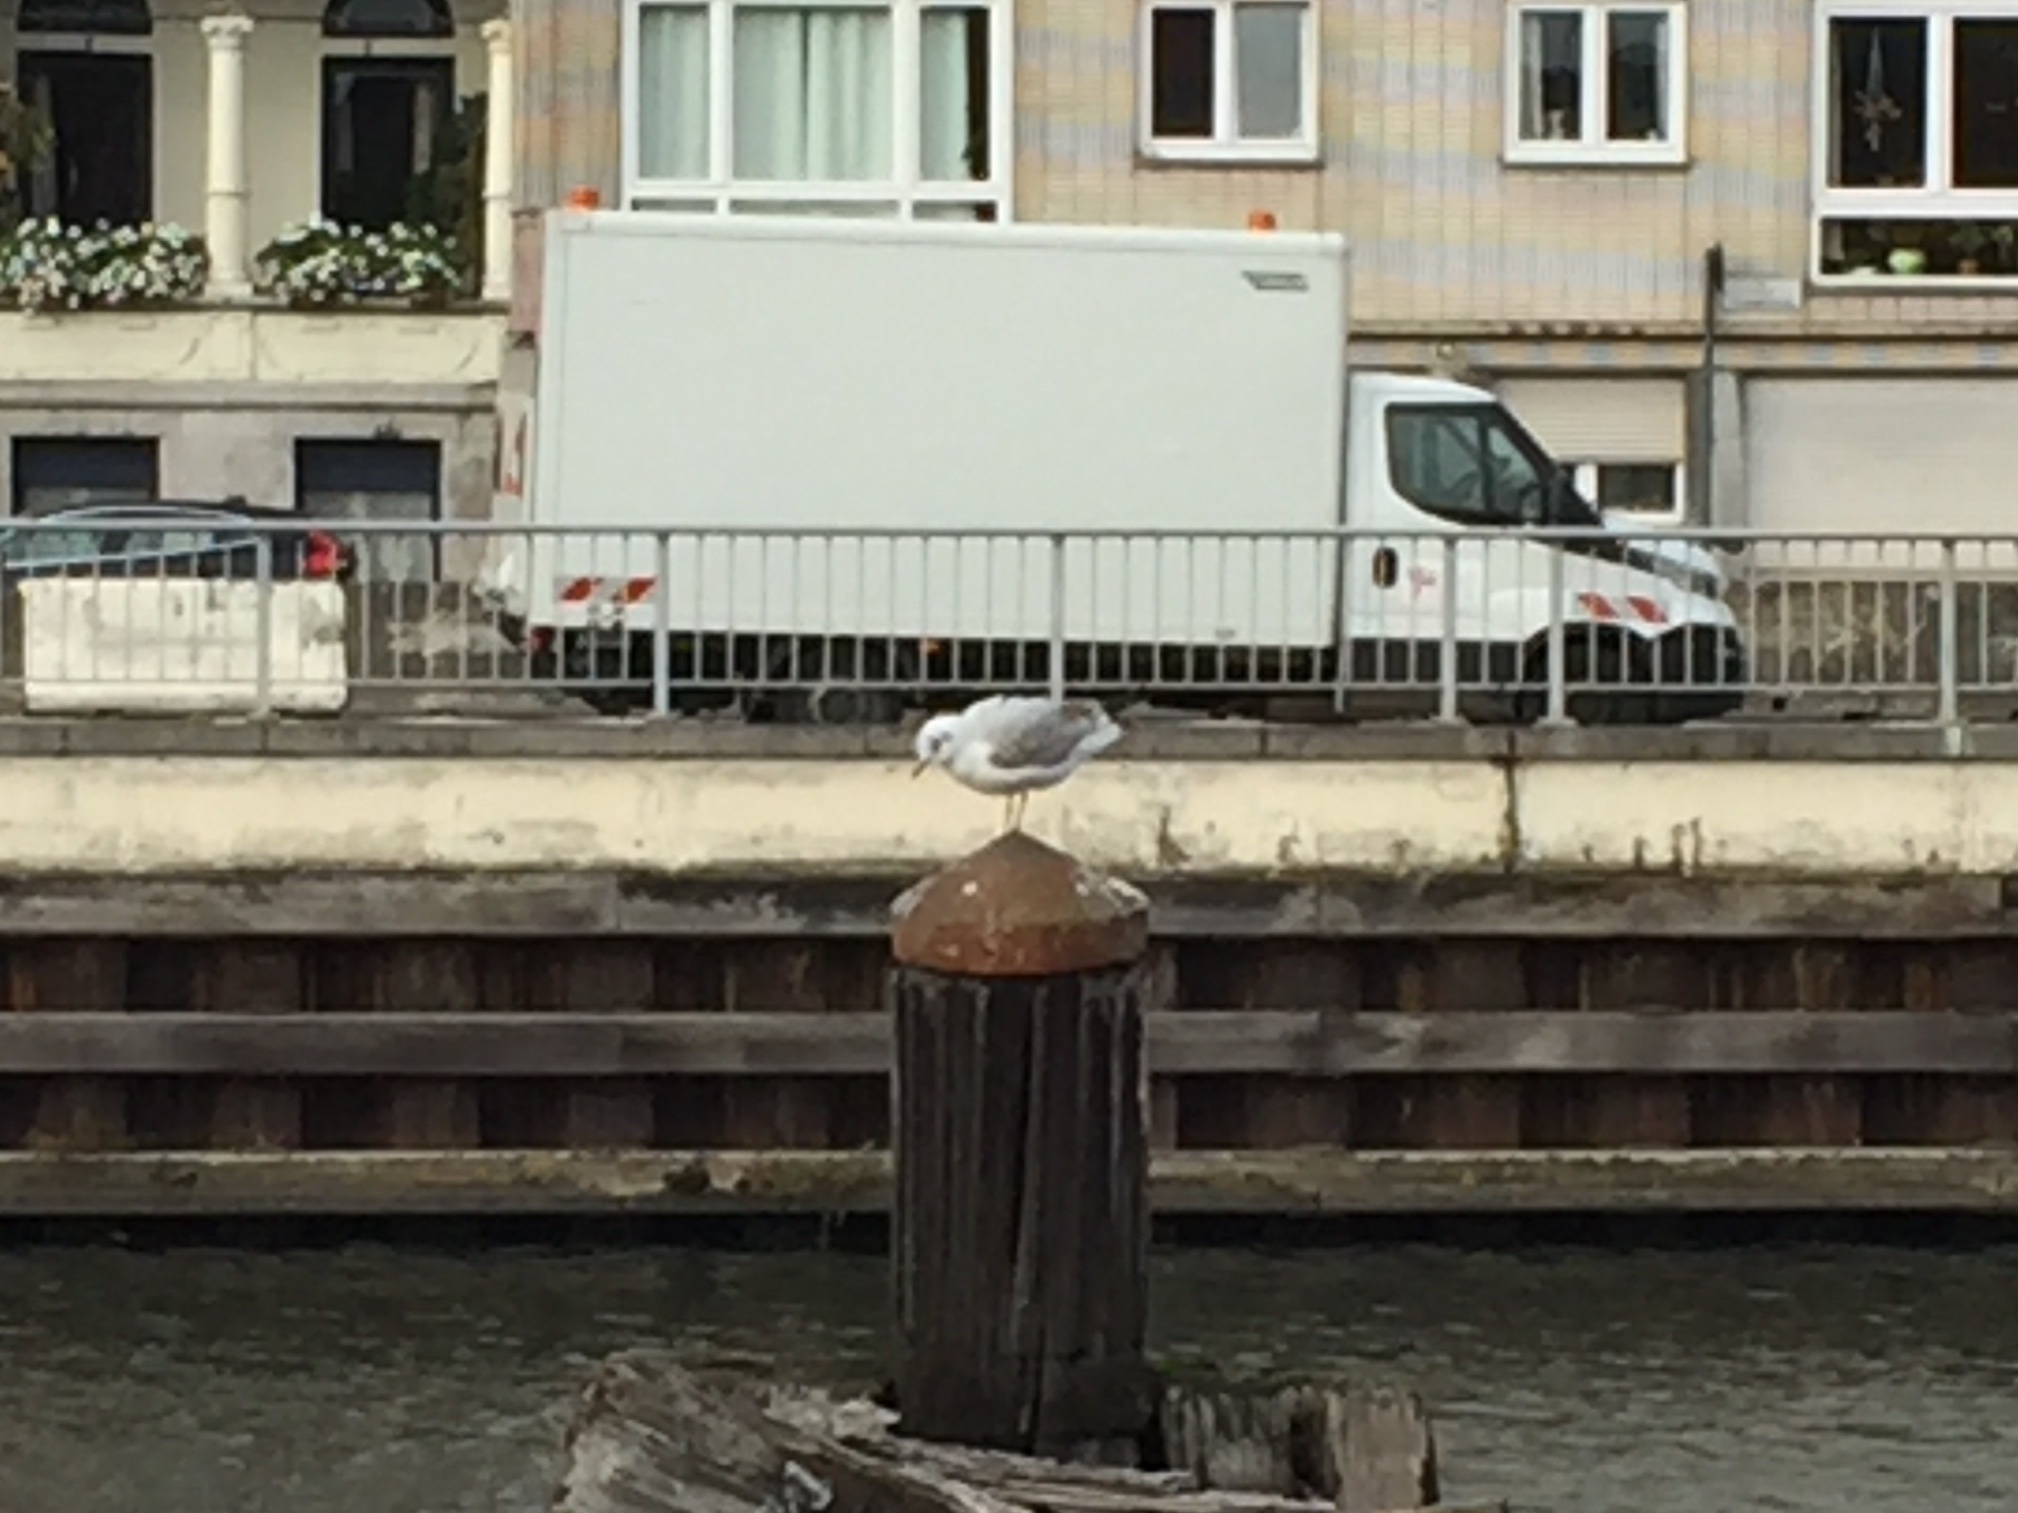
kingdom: Animalia
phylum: Chordata
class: Aves
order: Charadriiformes
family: Laridae
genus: Chroicocephalus
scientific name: Chroicocephalus ridibundus
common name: Black-headed gull
